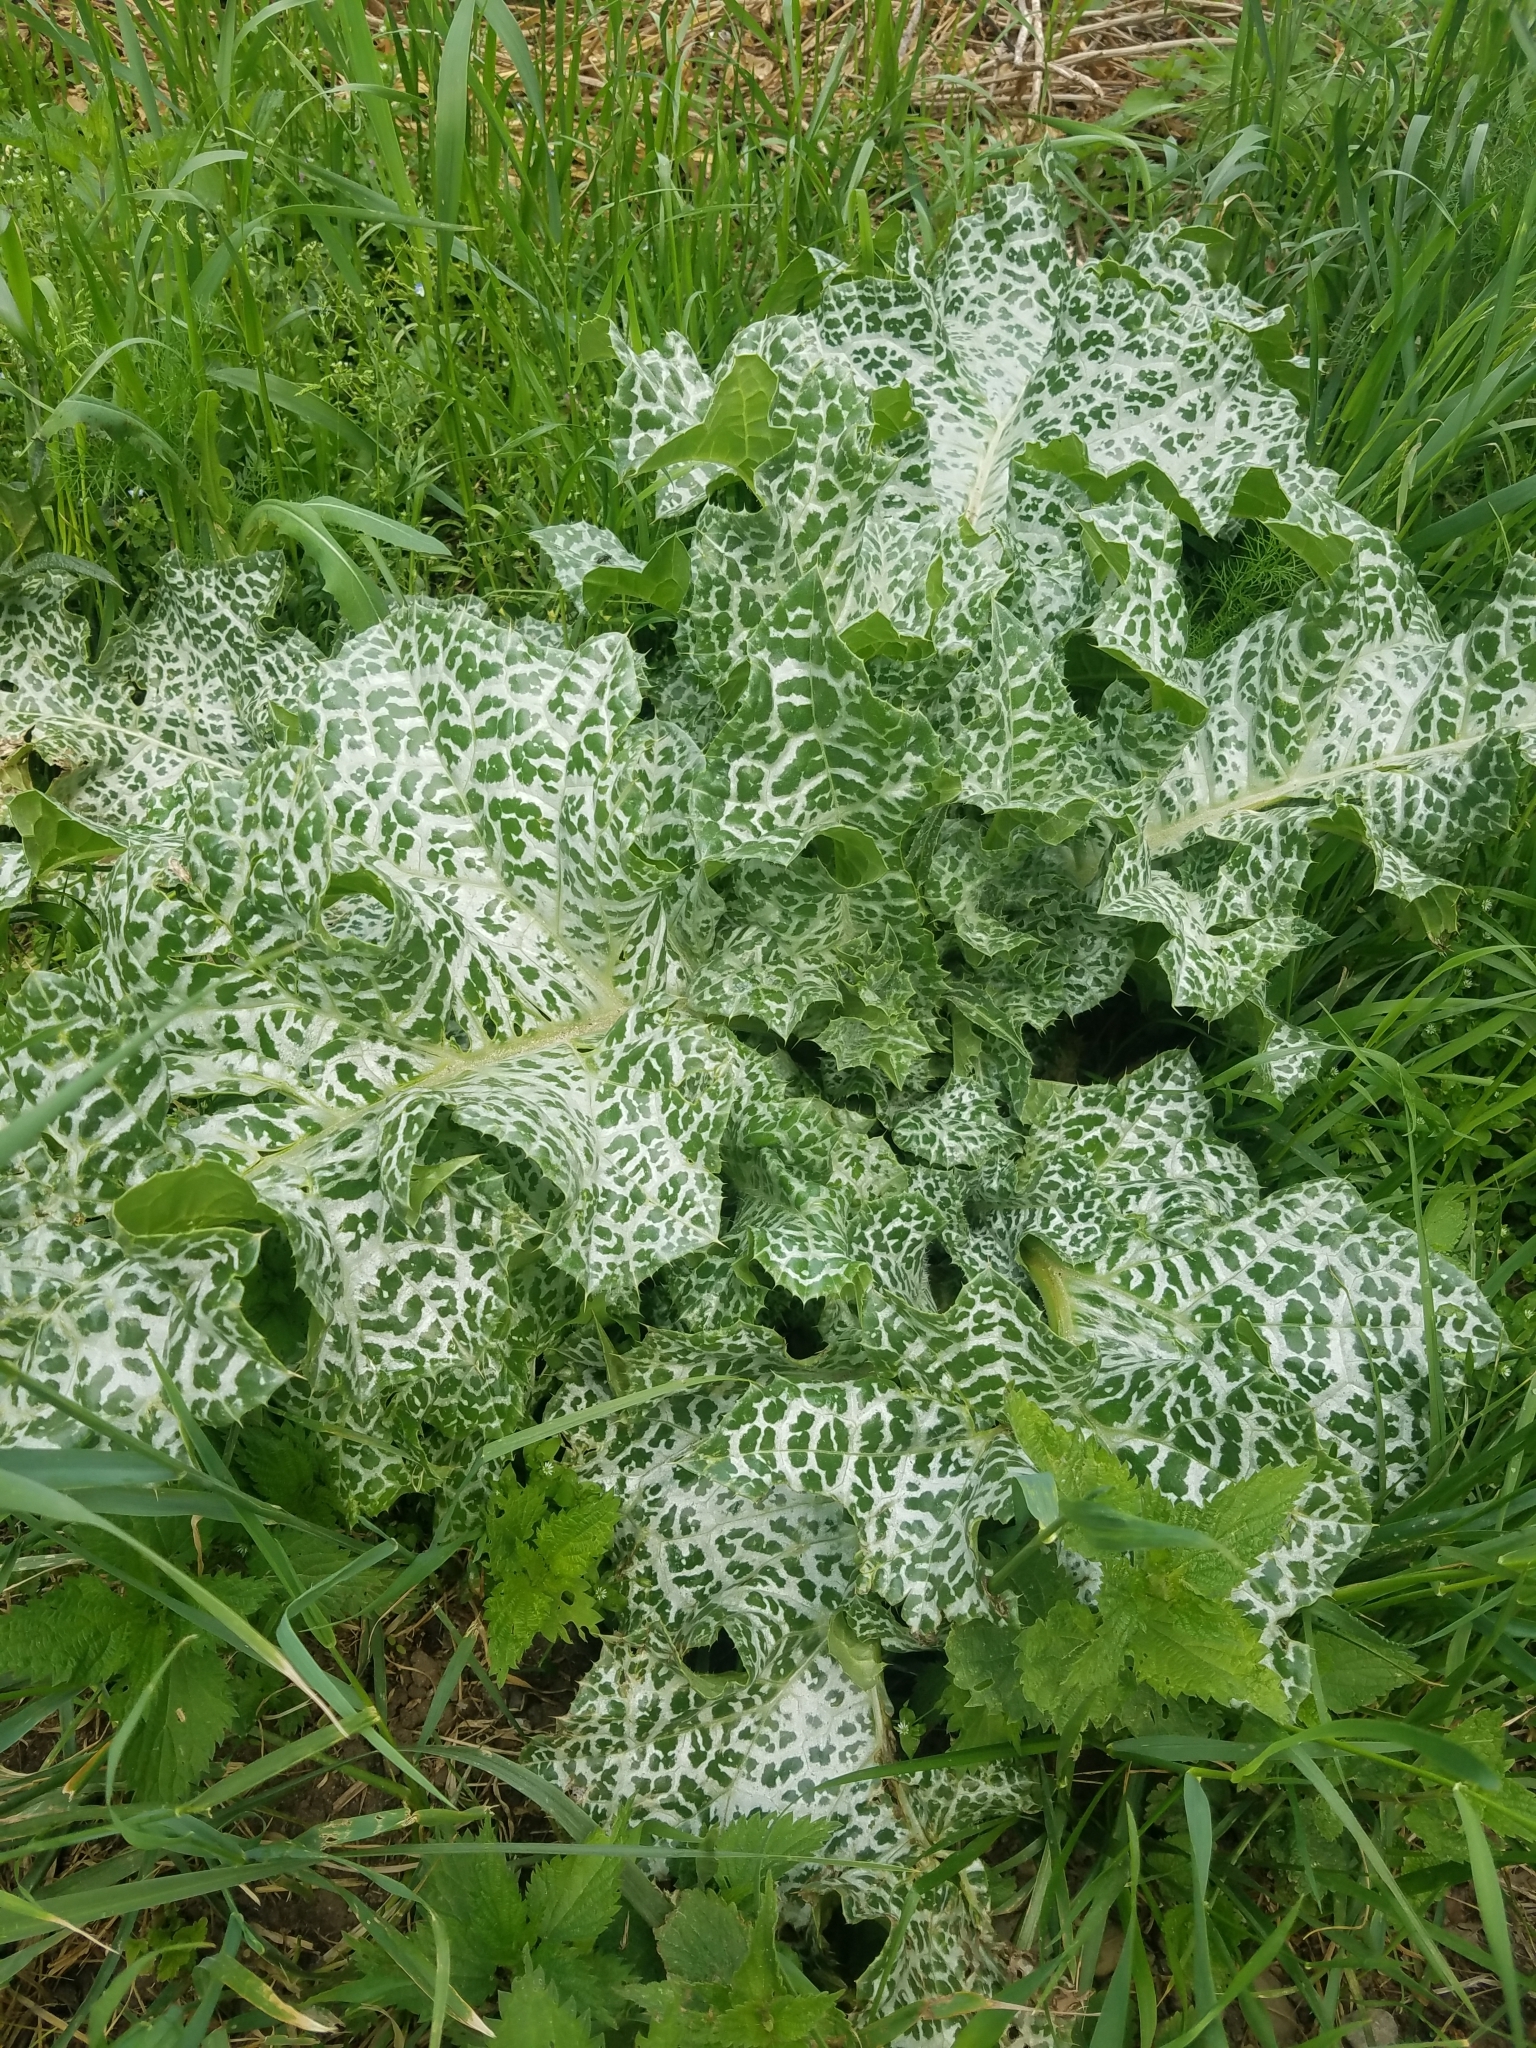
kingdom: Plantae
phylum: Tracheophyta
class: Magnoliopsida
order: Asterales
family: Asteraceae
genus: Silybum
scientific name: Silybum marianum
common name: Milk thistle
